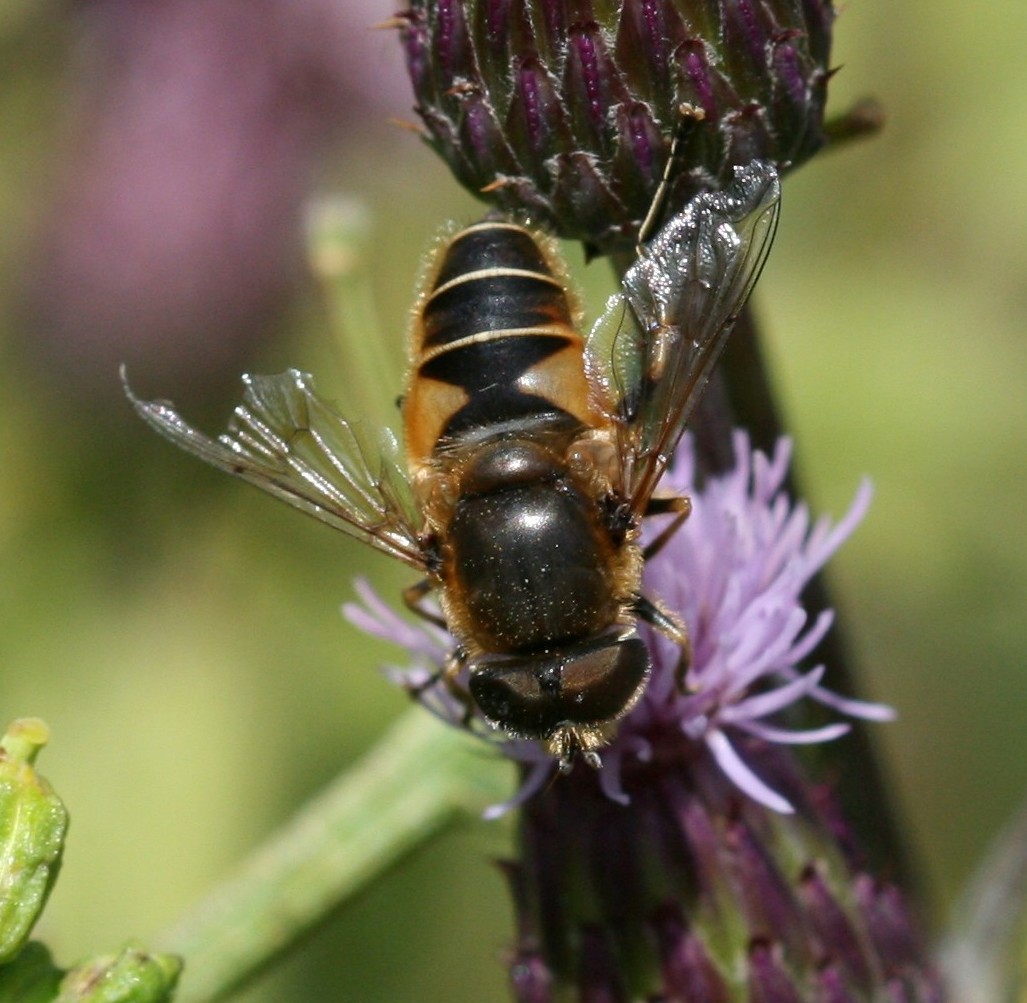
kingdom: Animalia
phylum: Arthropoda
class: Insecta
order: Diptera
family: Syrphidae
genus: Eristalis
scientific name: Eristalis nemorum
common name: Orange-spined drone fly
